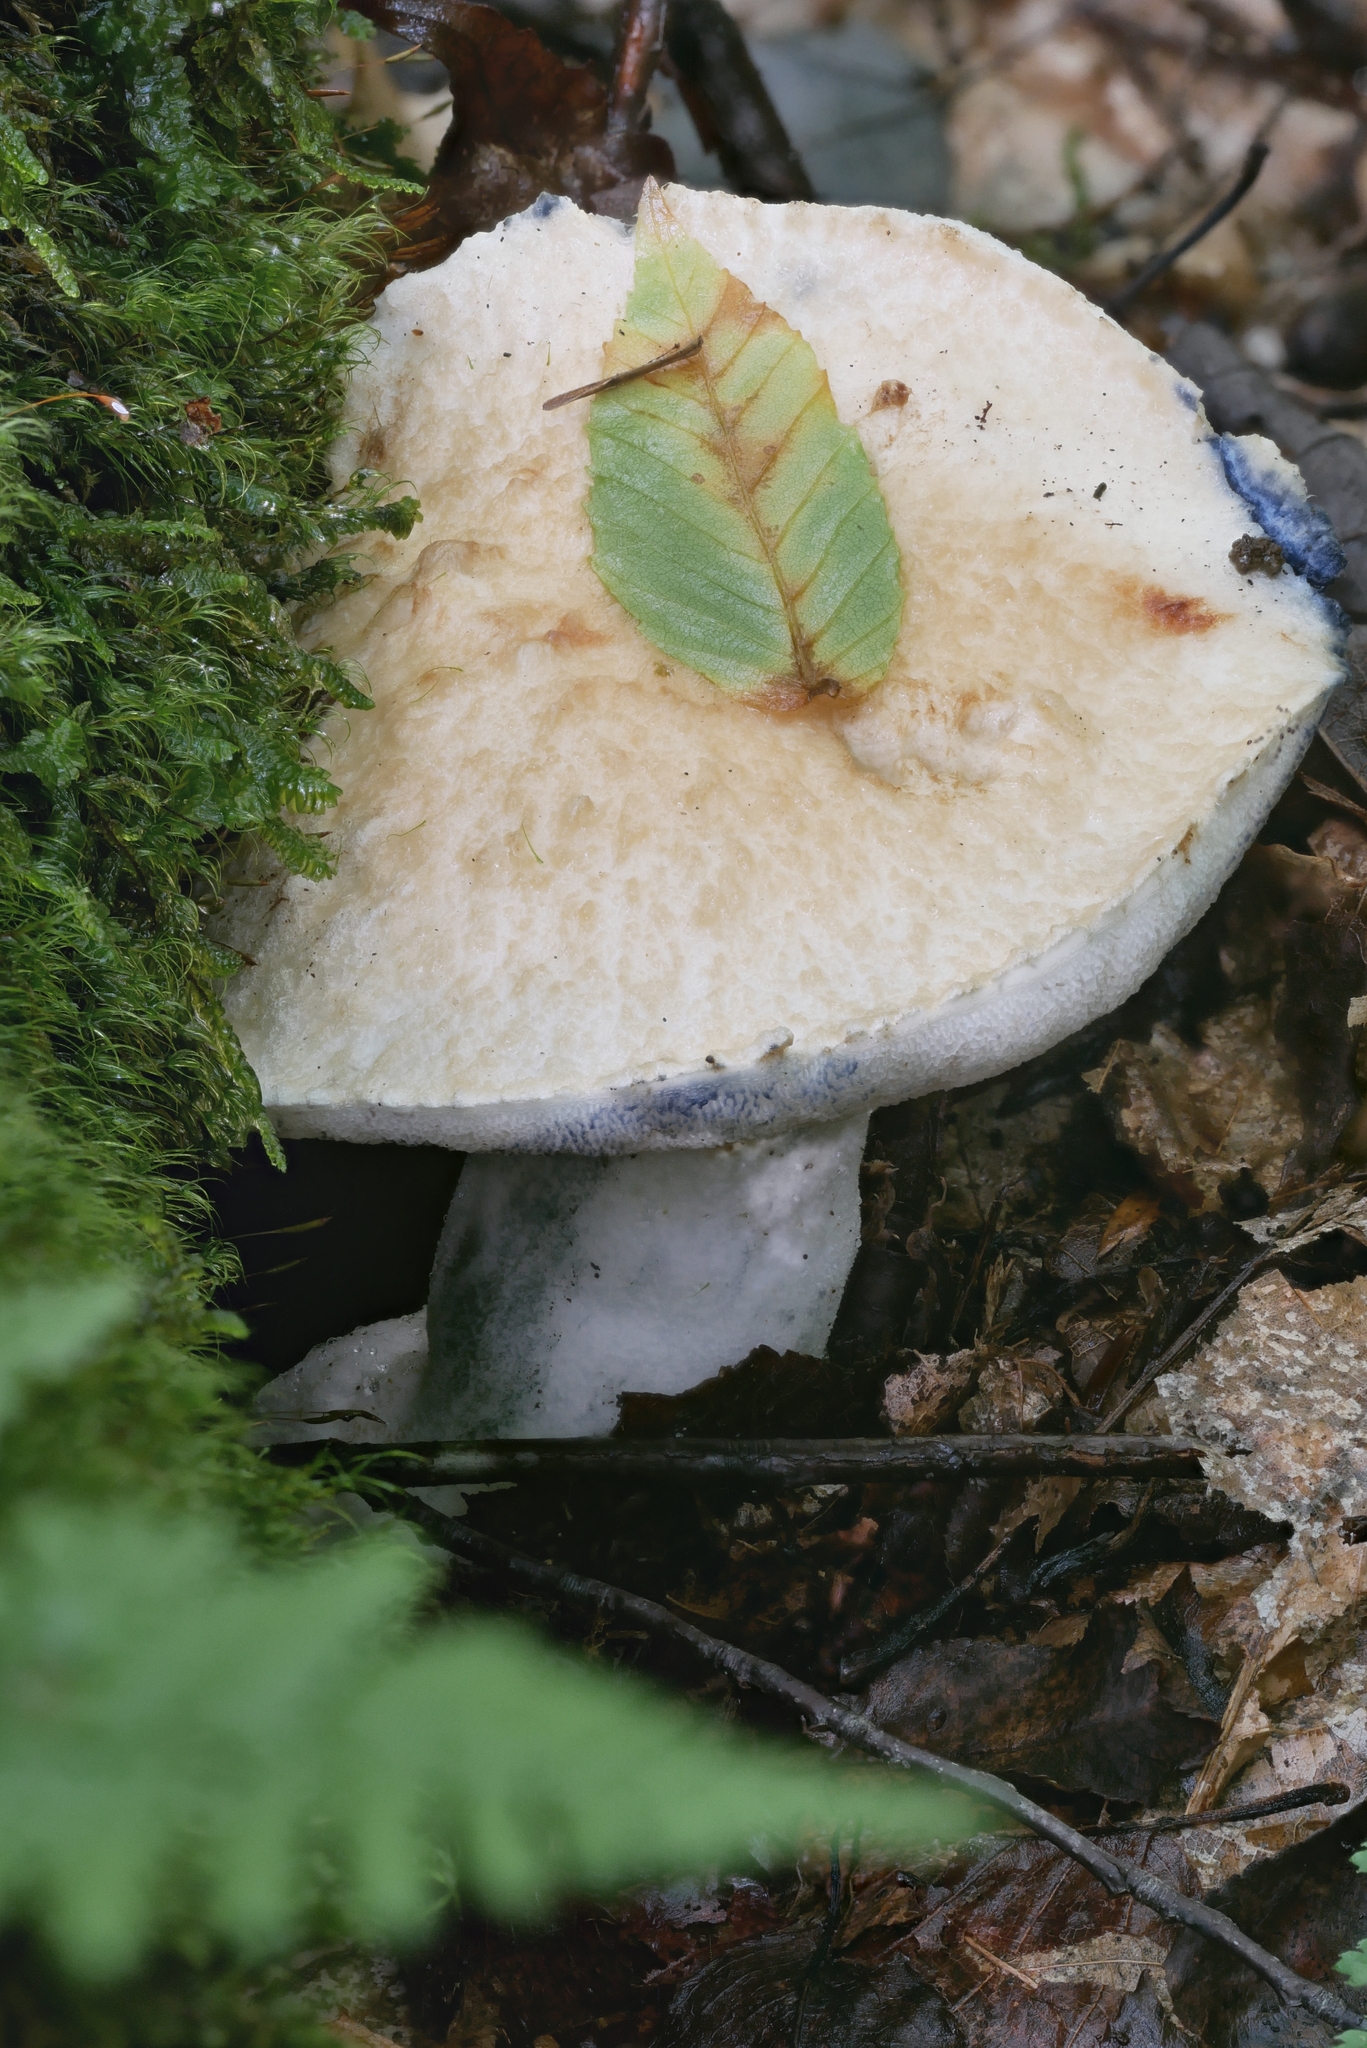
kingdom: Fungi
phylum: Basidiomycota
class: Agaricomycetes
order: Boletales
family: Gyroporaceae
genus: Gyroporus
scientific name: Gyroporus cyanescens
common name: Cornflower bolete
